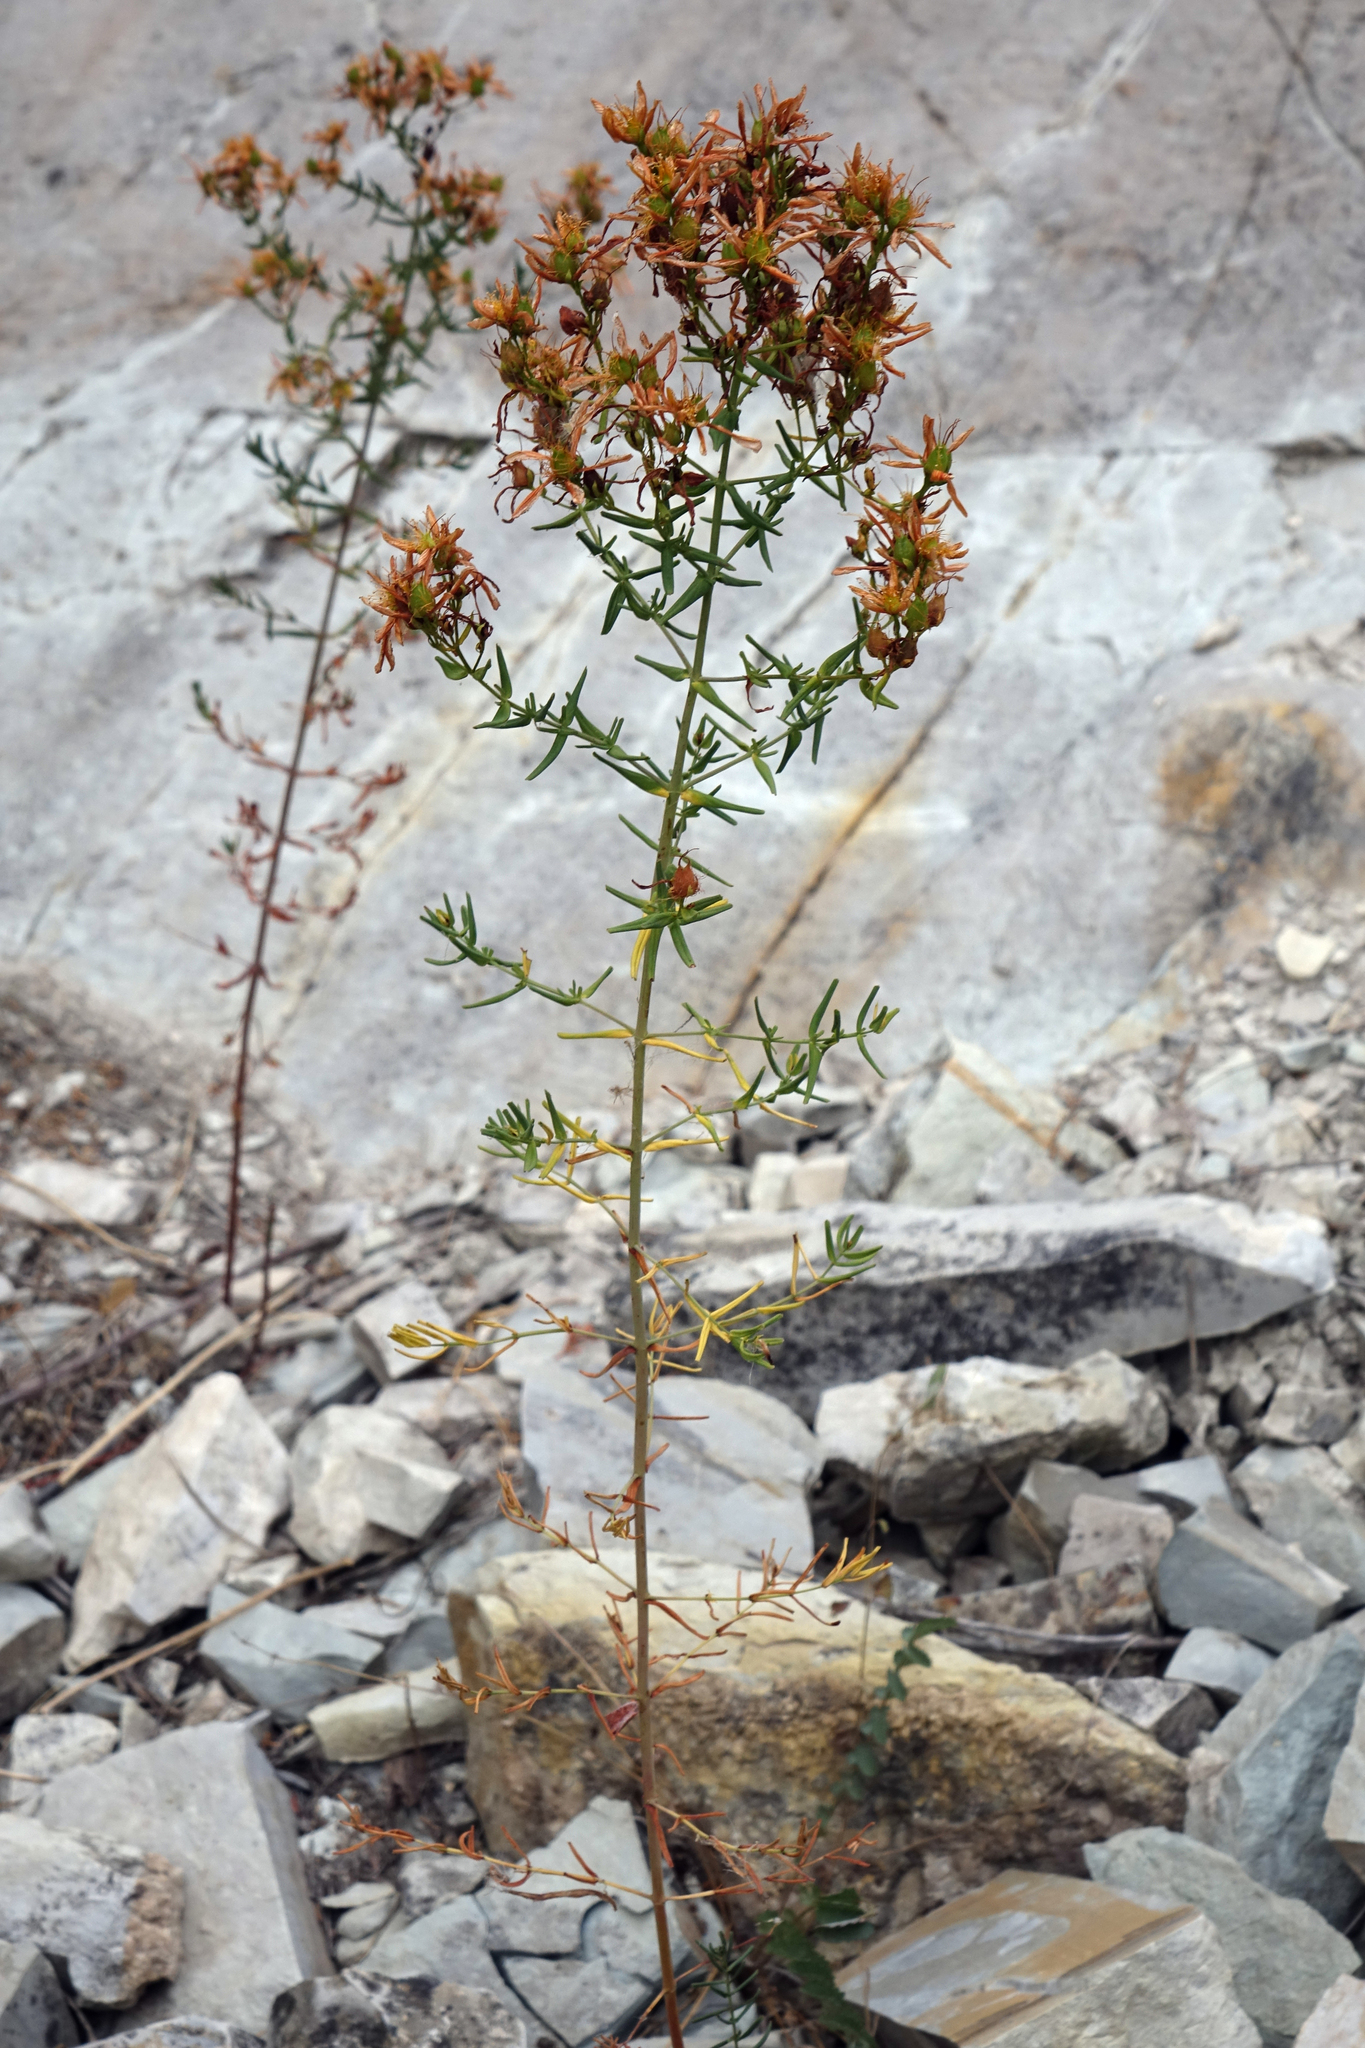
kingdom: Plantae
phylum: Tracheophyta
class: Magnoliopsida
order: Malpighiales
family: Hypericaceae
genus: Hypericum
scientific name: Hypericum perforatum
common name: Common st. johnswort
